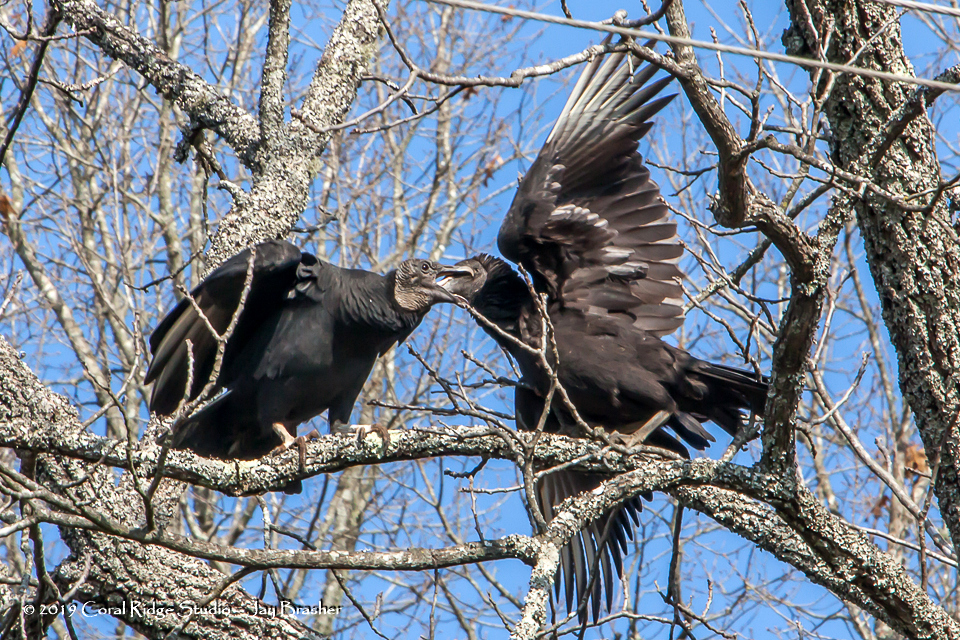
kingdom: Animalia
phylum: Chordata
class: Aves
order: Accipitriformes
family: Cathartidae
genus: Coragyps
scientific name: Coragyps atratus
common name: Black vulture
